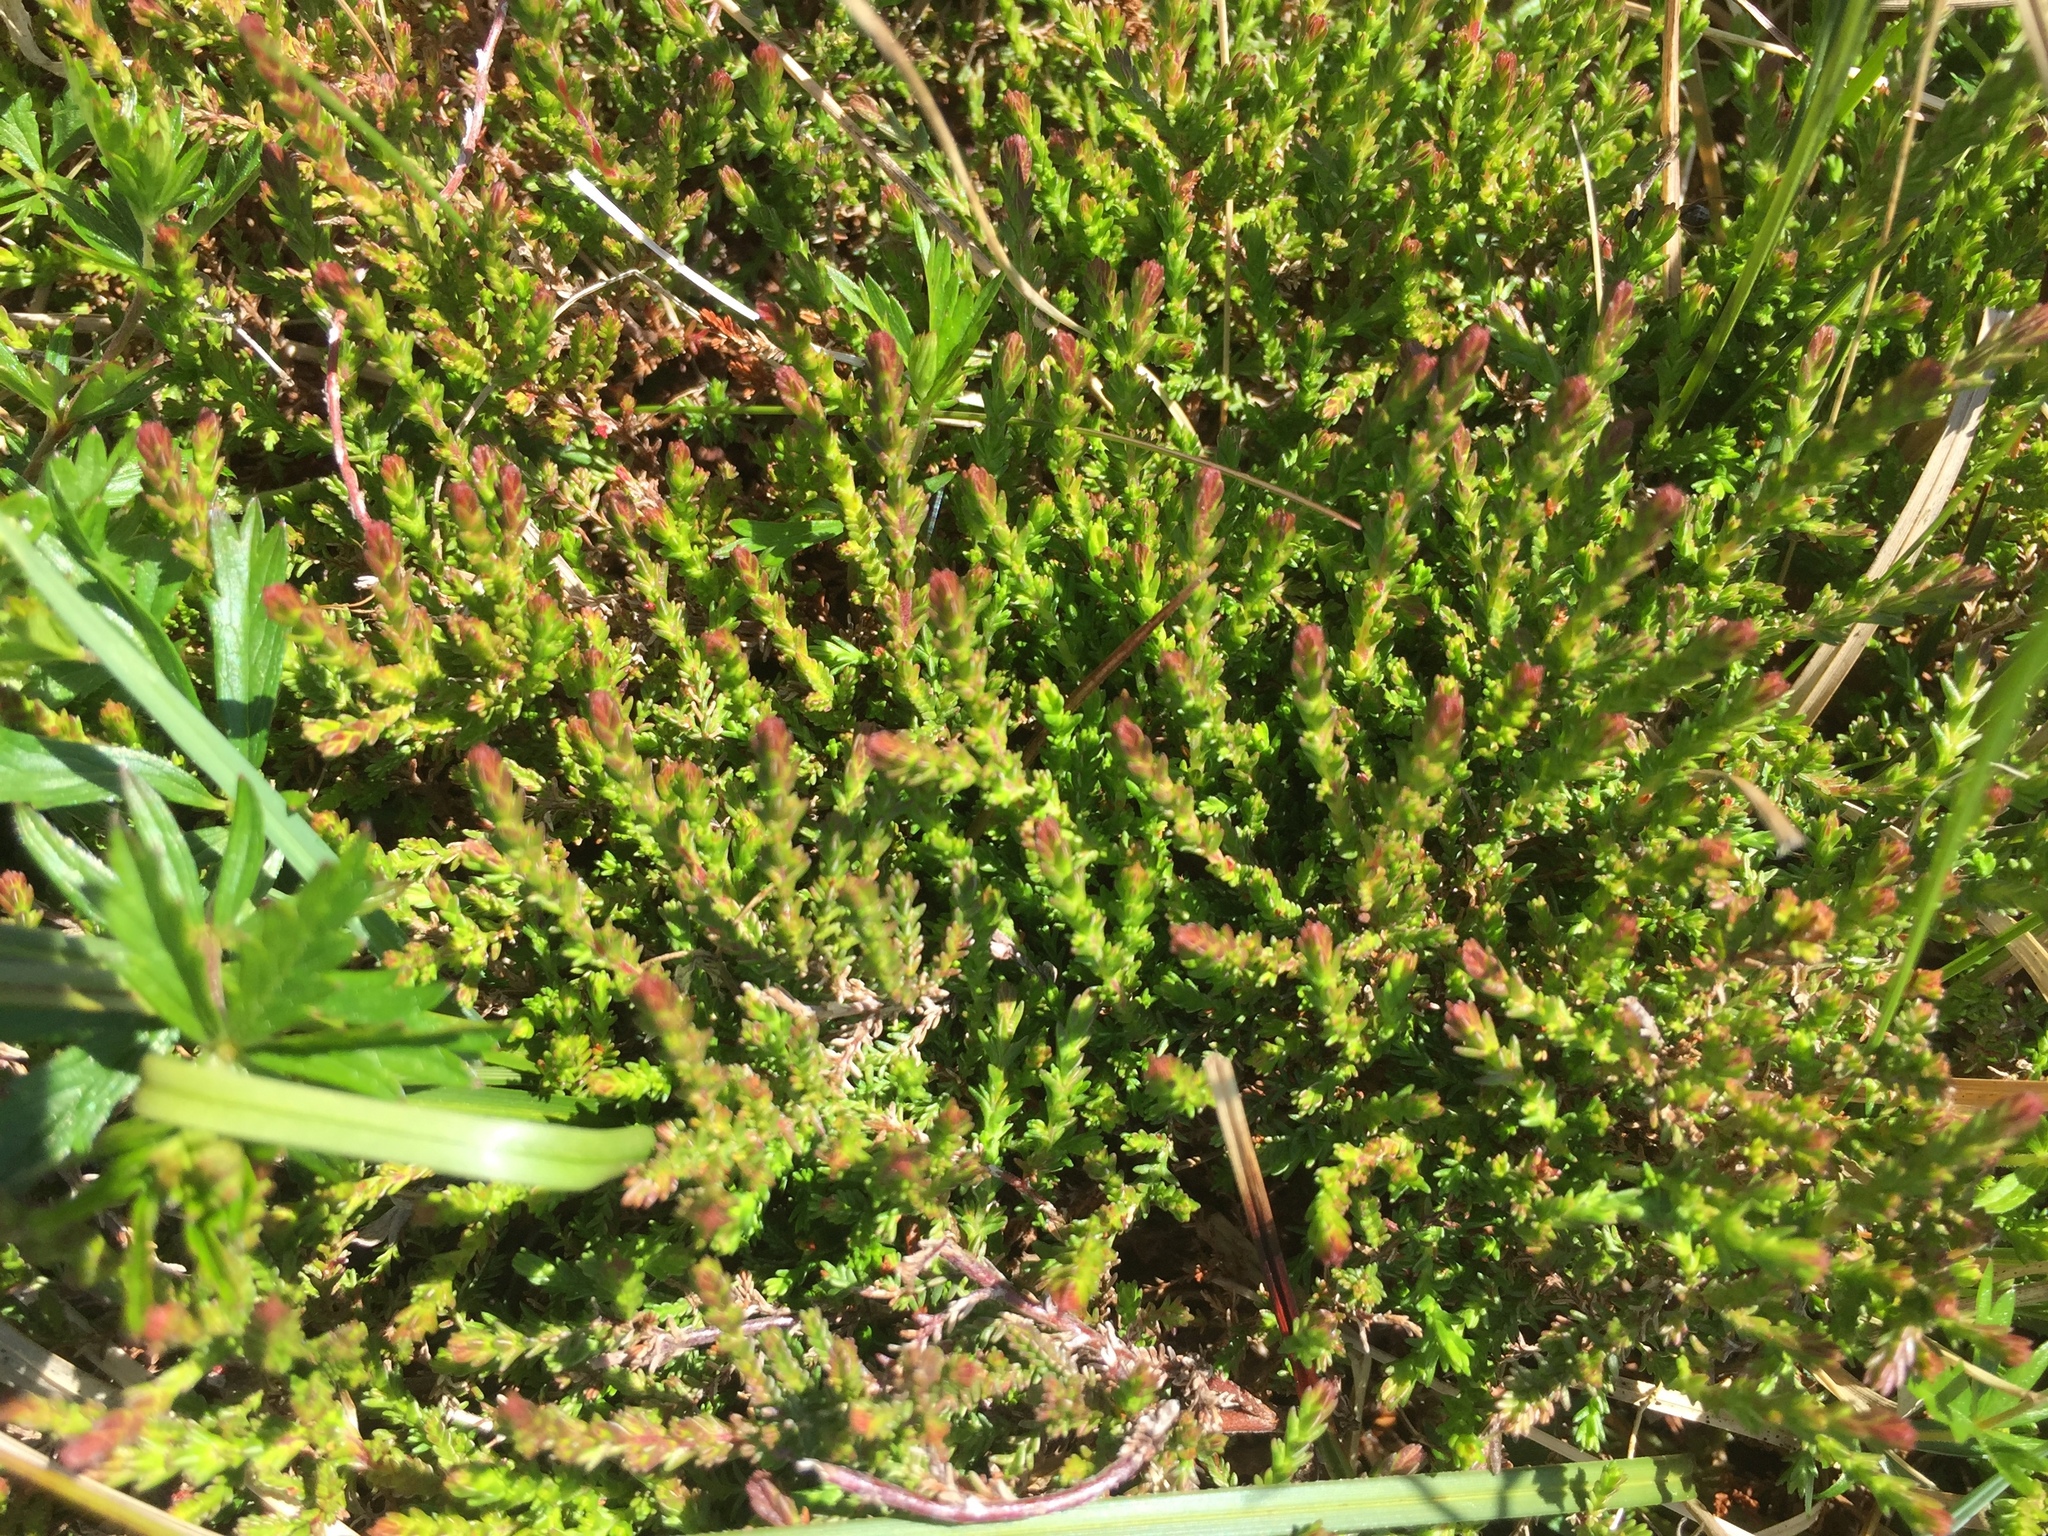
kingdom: Plantae
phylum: Tracheophyta
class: Magnoliopsida
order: Ericales
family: Ericaceae
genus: Calluna
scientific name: Calluna vulgaris
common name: Heather
